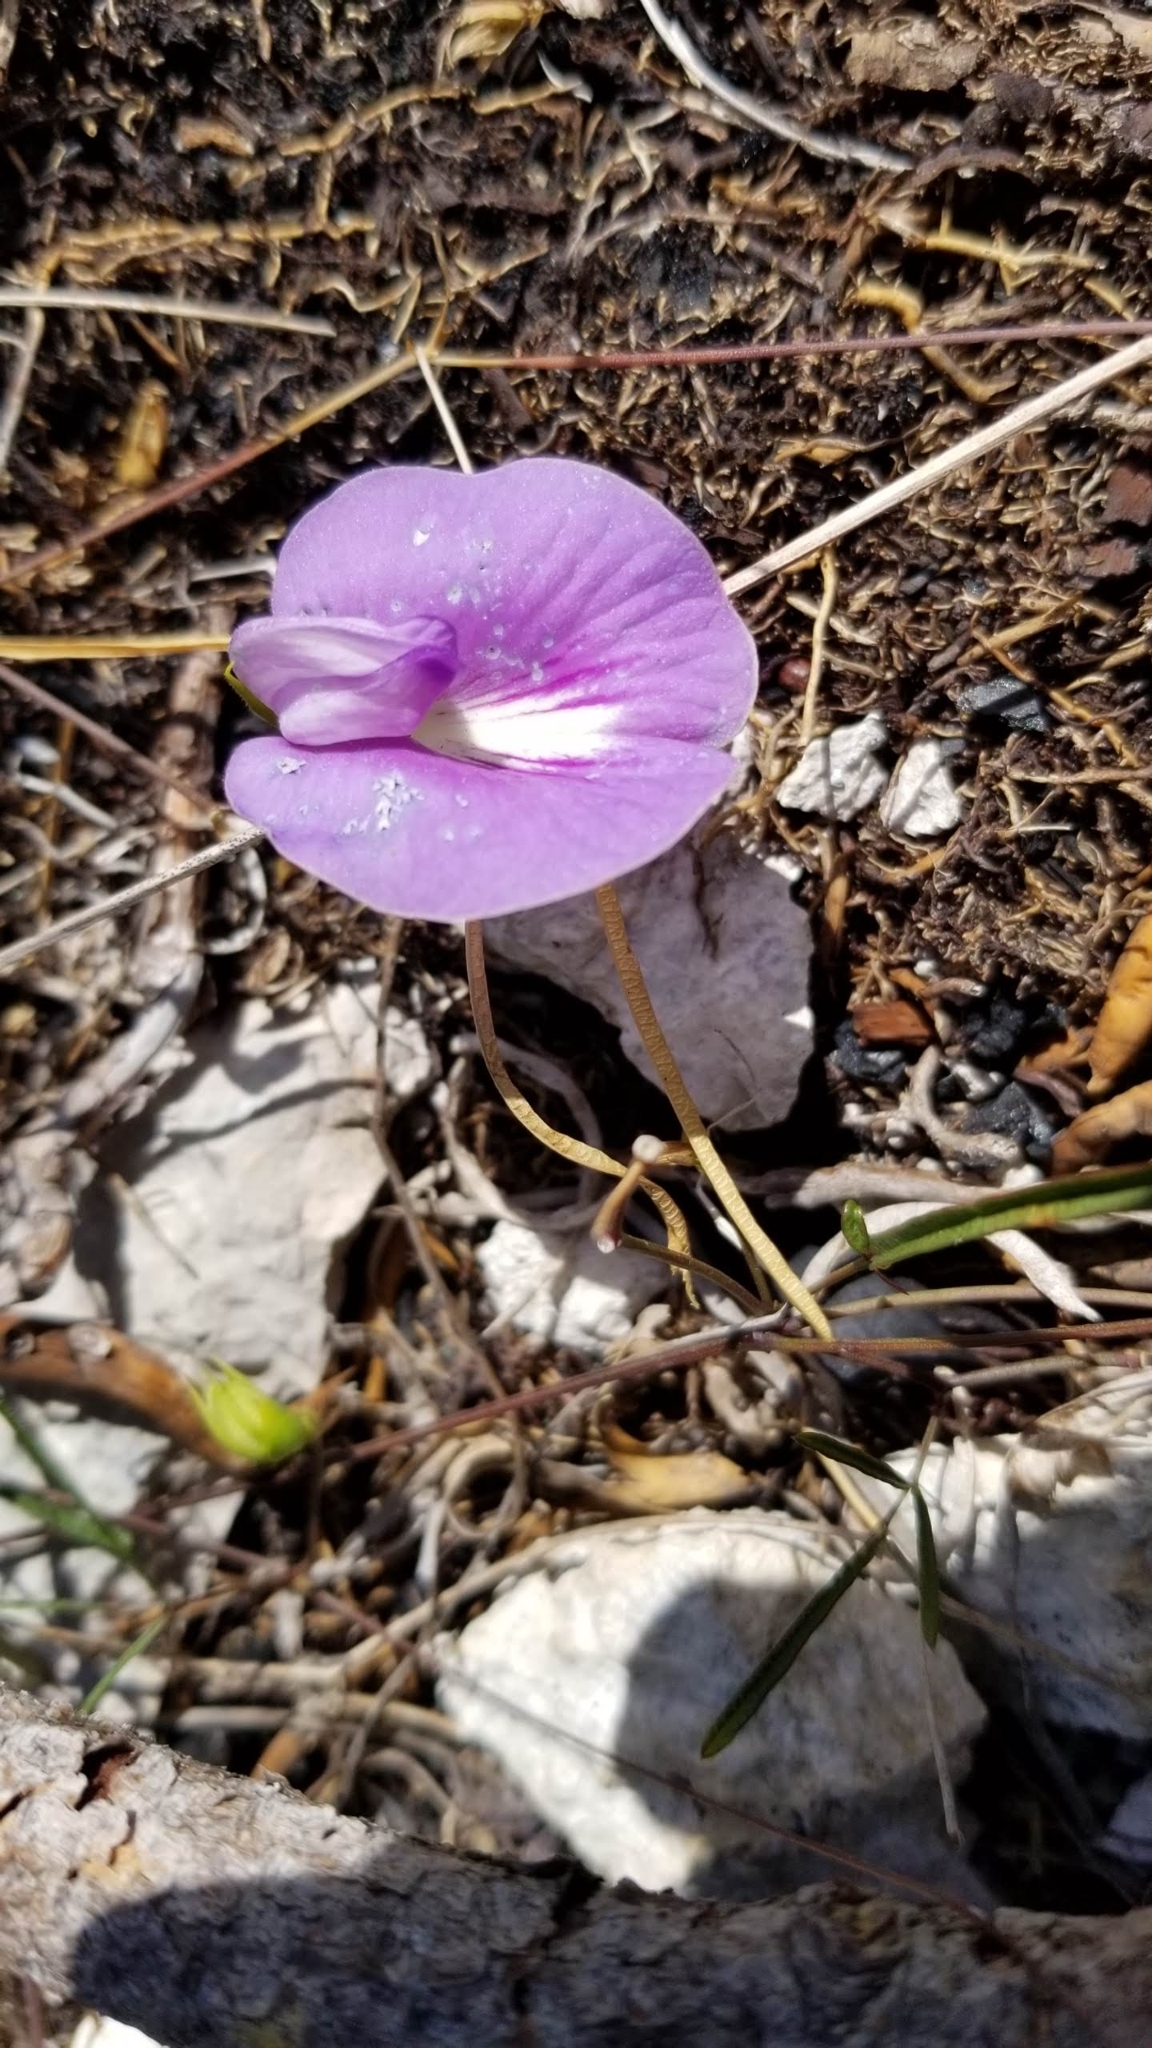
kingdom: Plantae
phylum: Tracheophyta
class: Magnoliopsida
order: Fabales
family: Fabaceae
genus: Centrosema
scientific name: Centrosema virginianum
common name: Butterfly-pea
